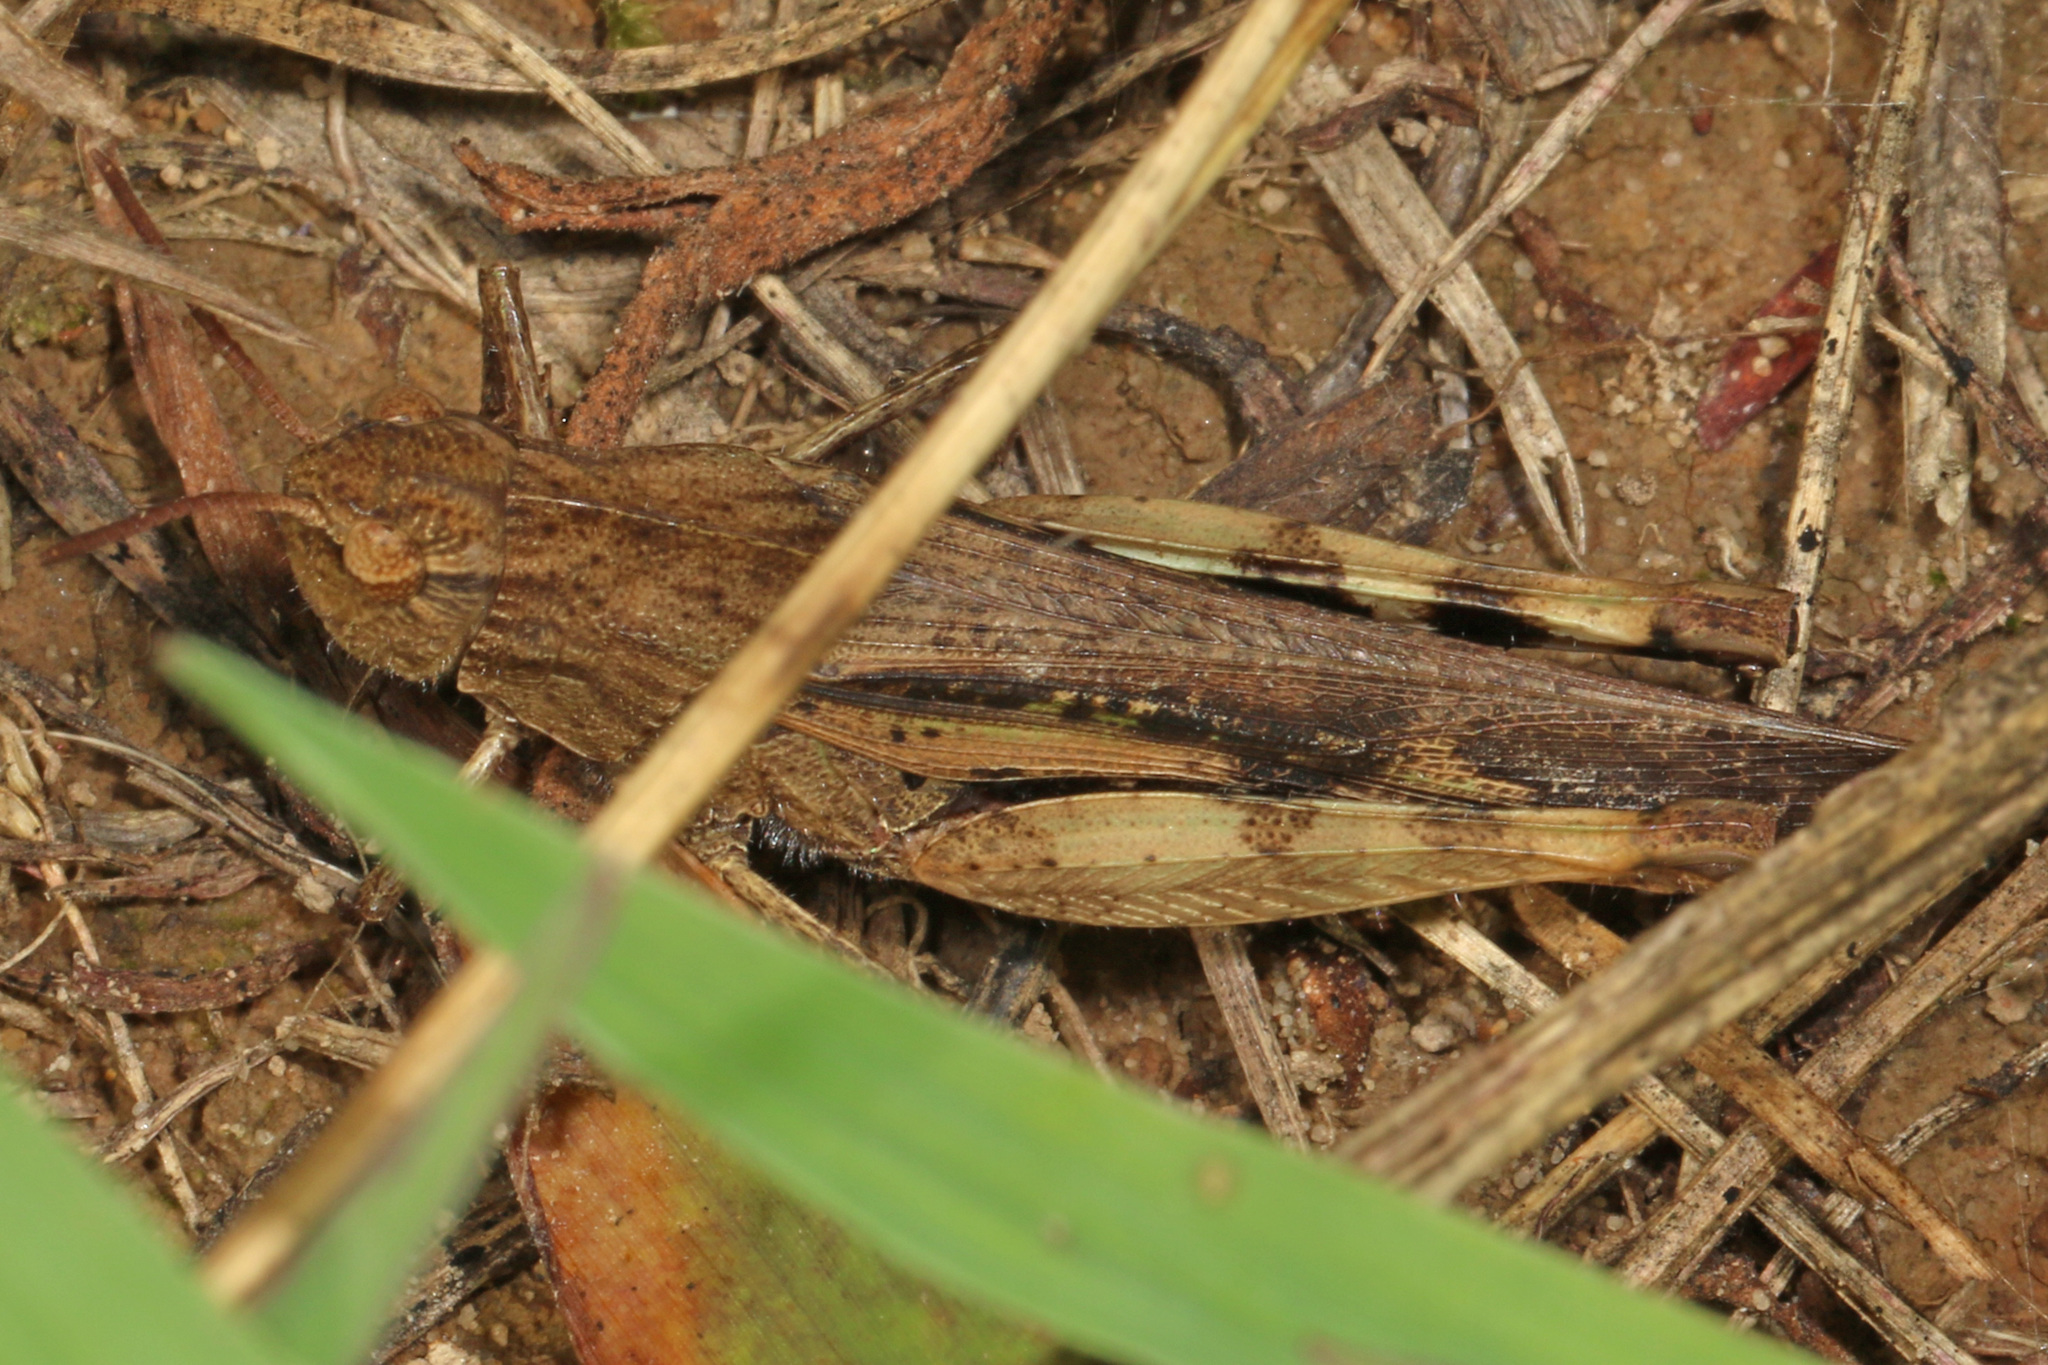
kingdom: Animalia
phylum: Arthropoda
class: Insecta
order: Orthoptera
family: Acrididae
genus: Chortophaga
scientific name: Chortophaga viridifasciata
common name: Green-striped grasshopper
